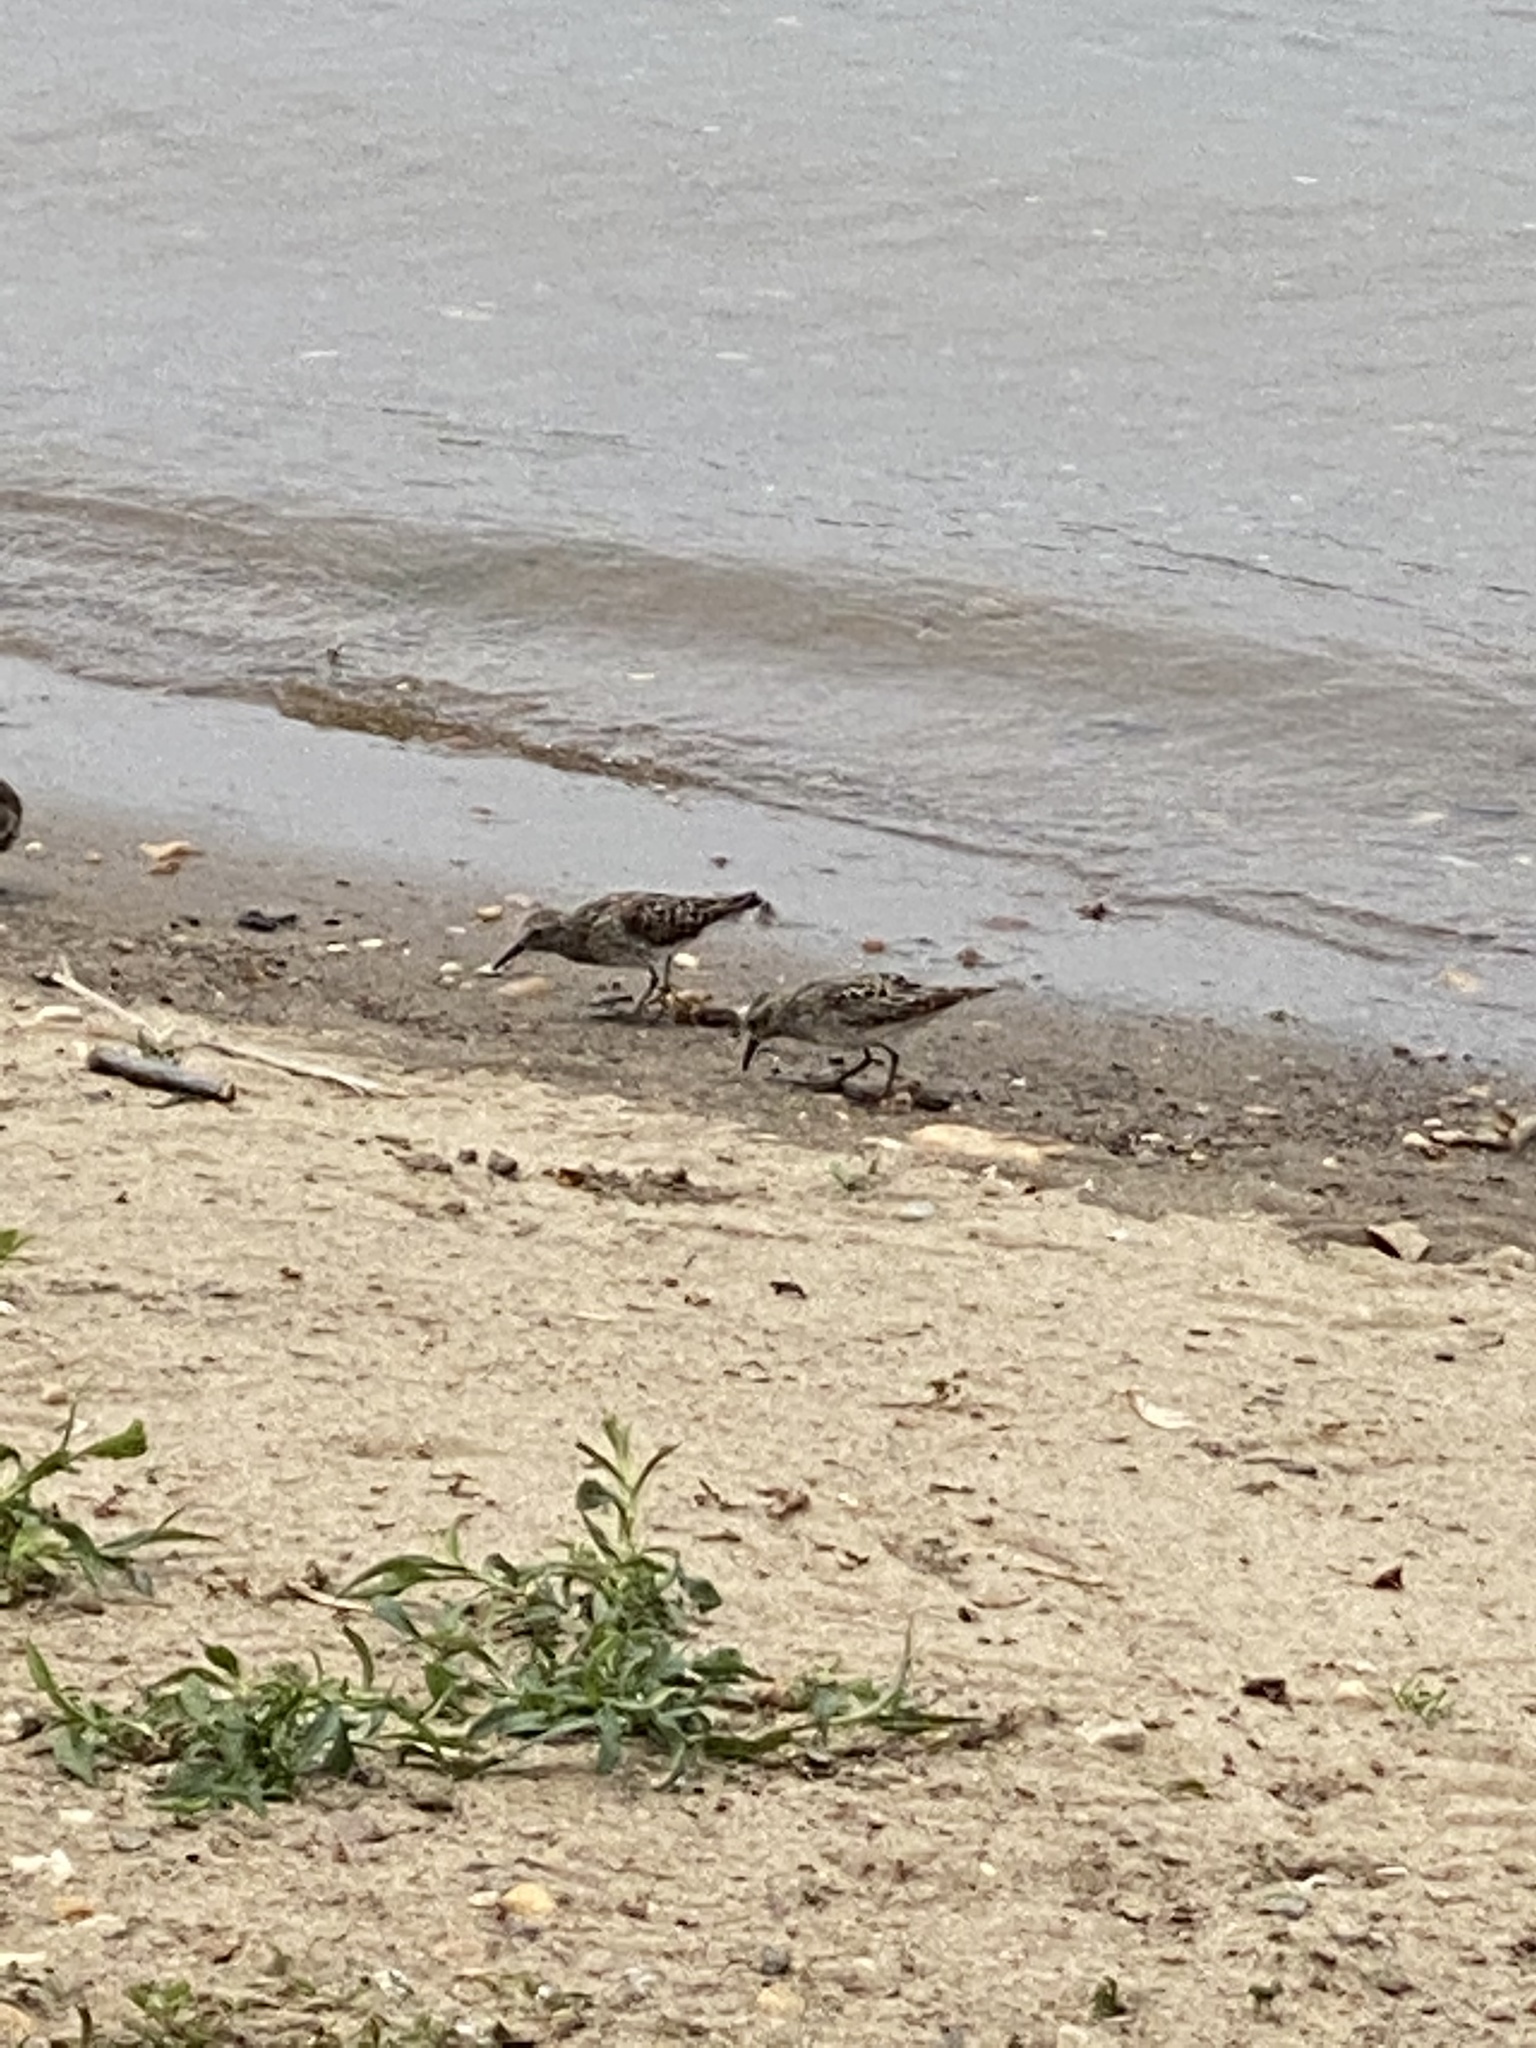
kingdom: Animalia
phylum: Chordata
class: Aves
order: Charadriiformes
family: Scolopacidae
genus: Calidris
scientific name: Calidris minutilla
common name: Least sandpiper
